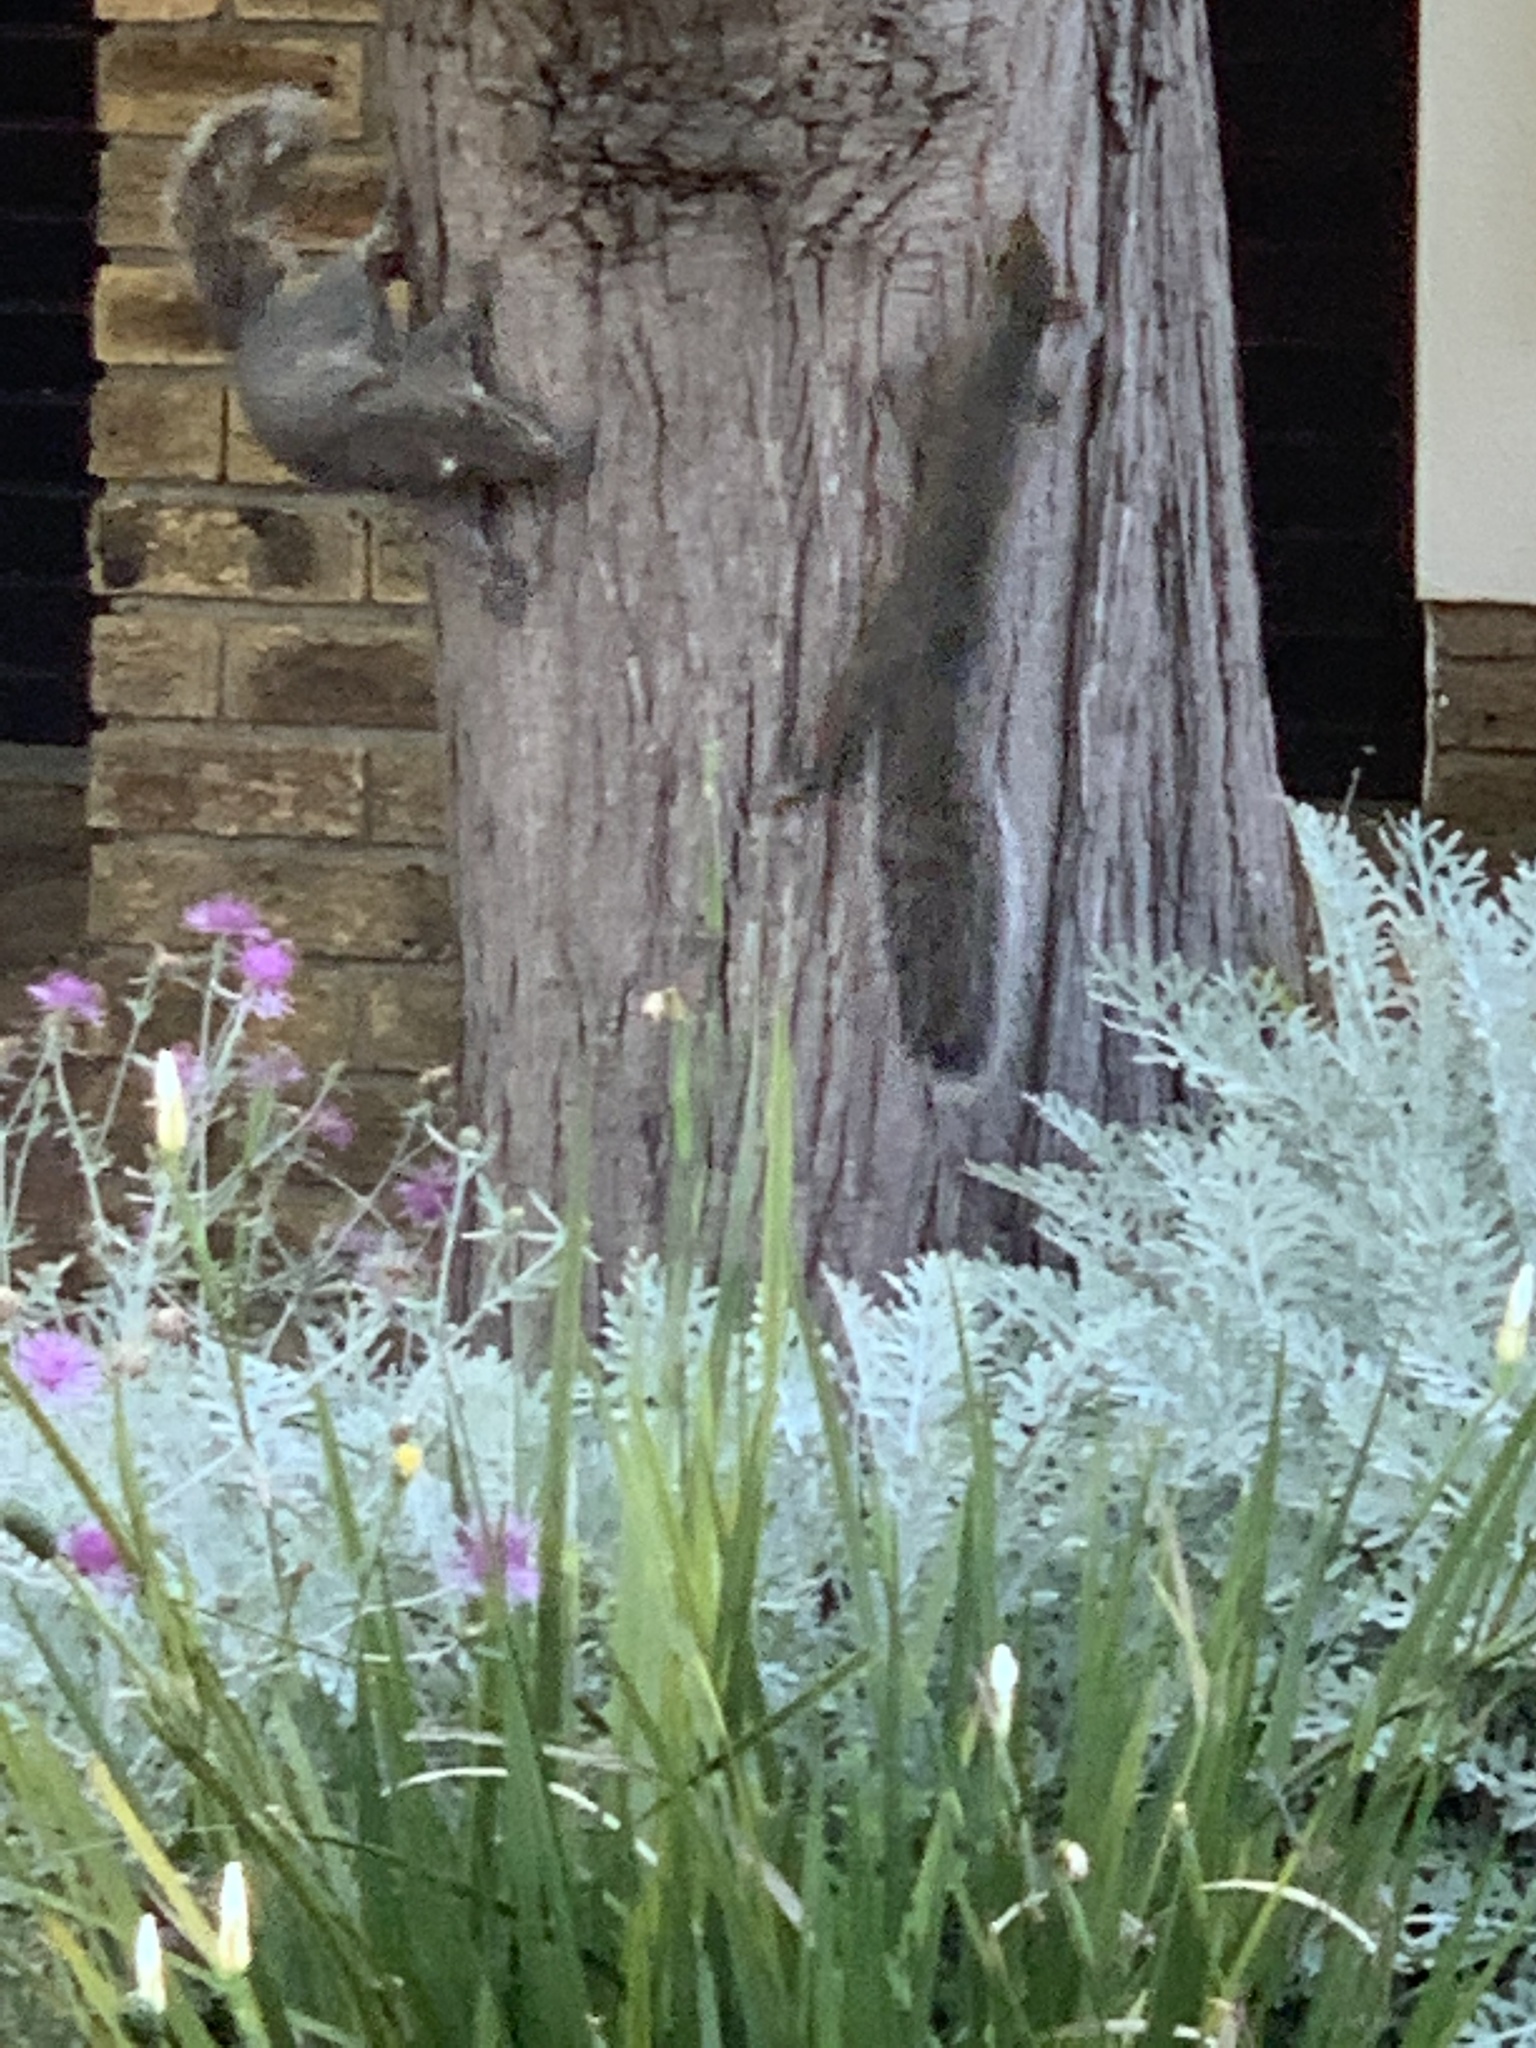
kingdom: Animalia
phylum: Chordata
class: Mammalia
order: Rodentia
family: Sciuridae
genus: Sciurus
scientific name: Sciurus carolinensis
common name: Eastern gray squirrel
